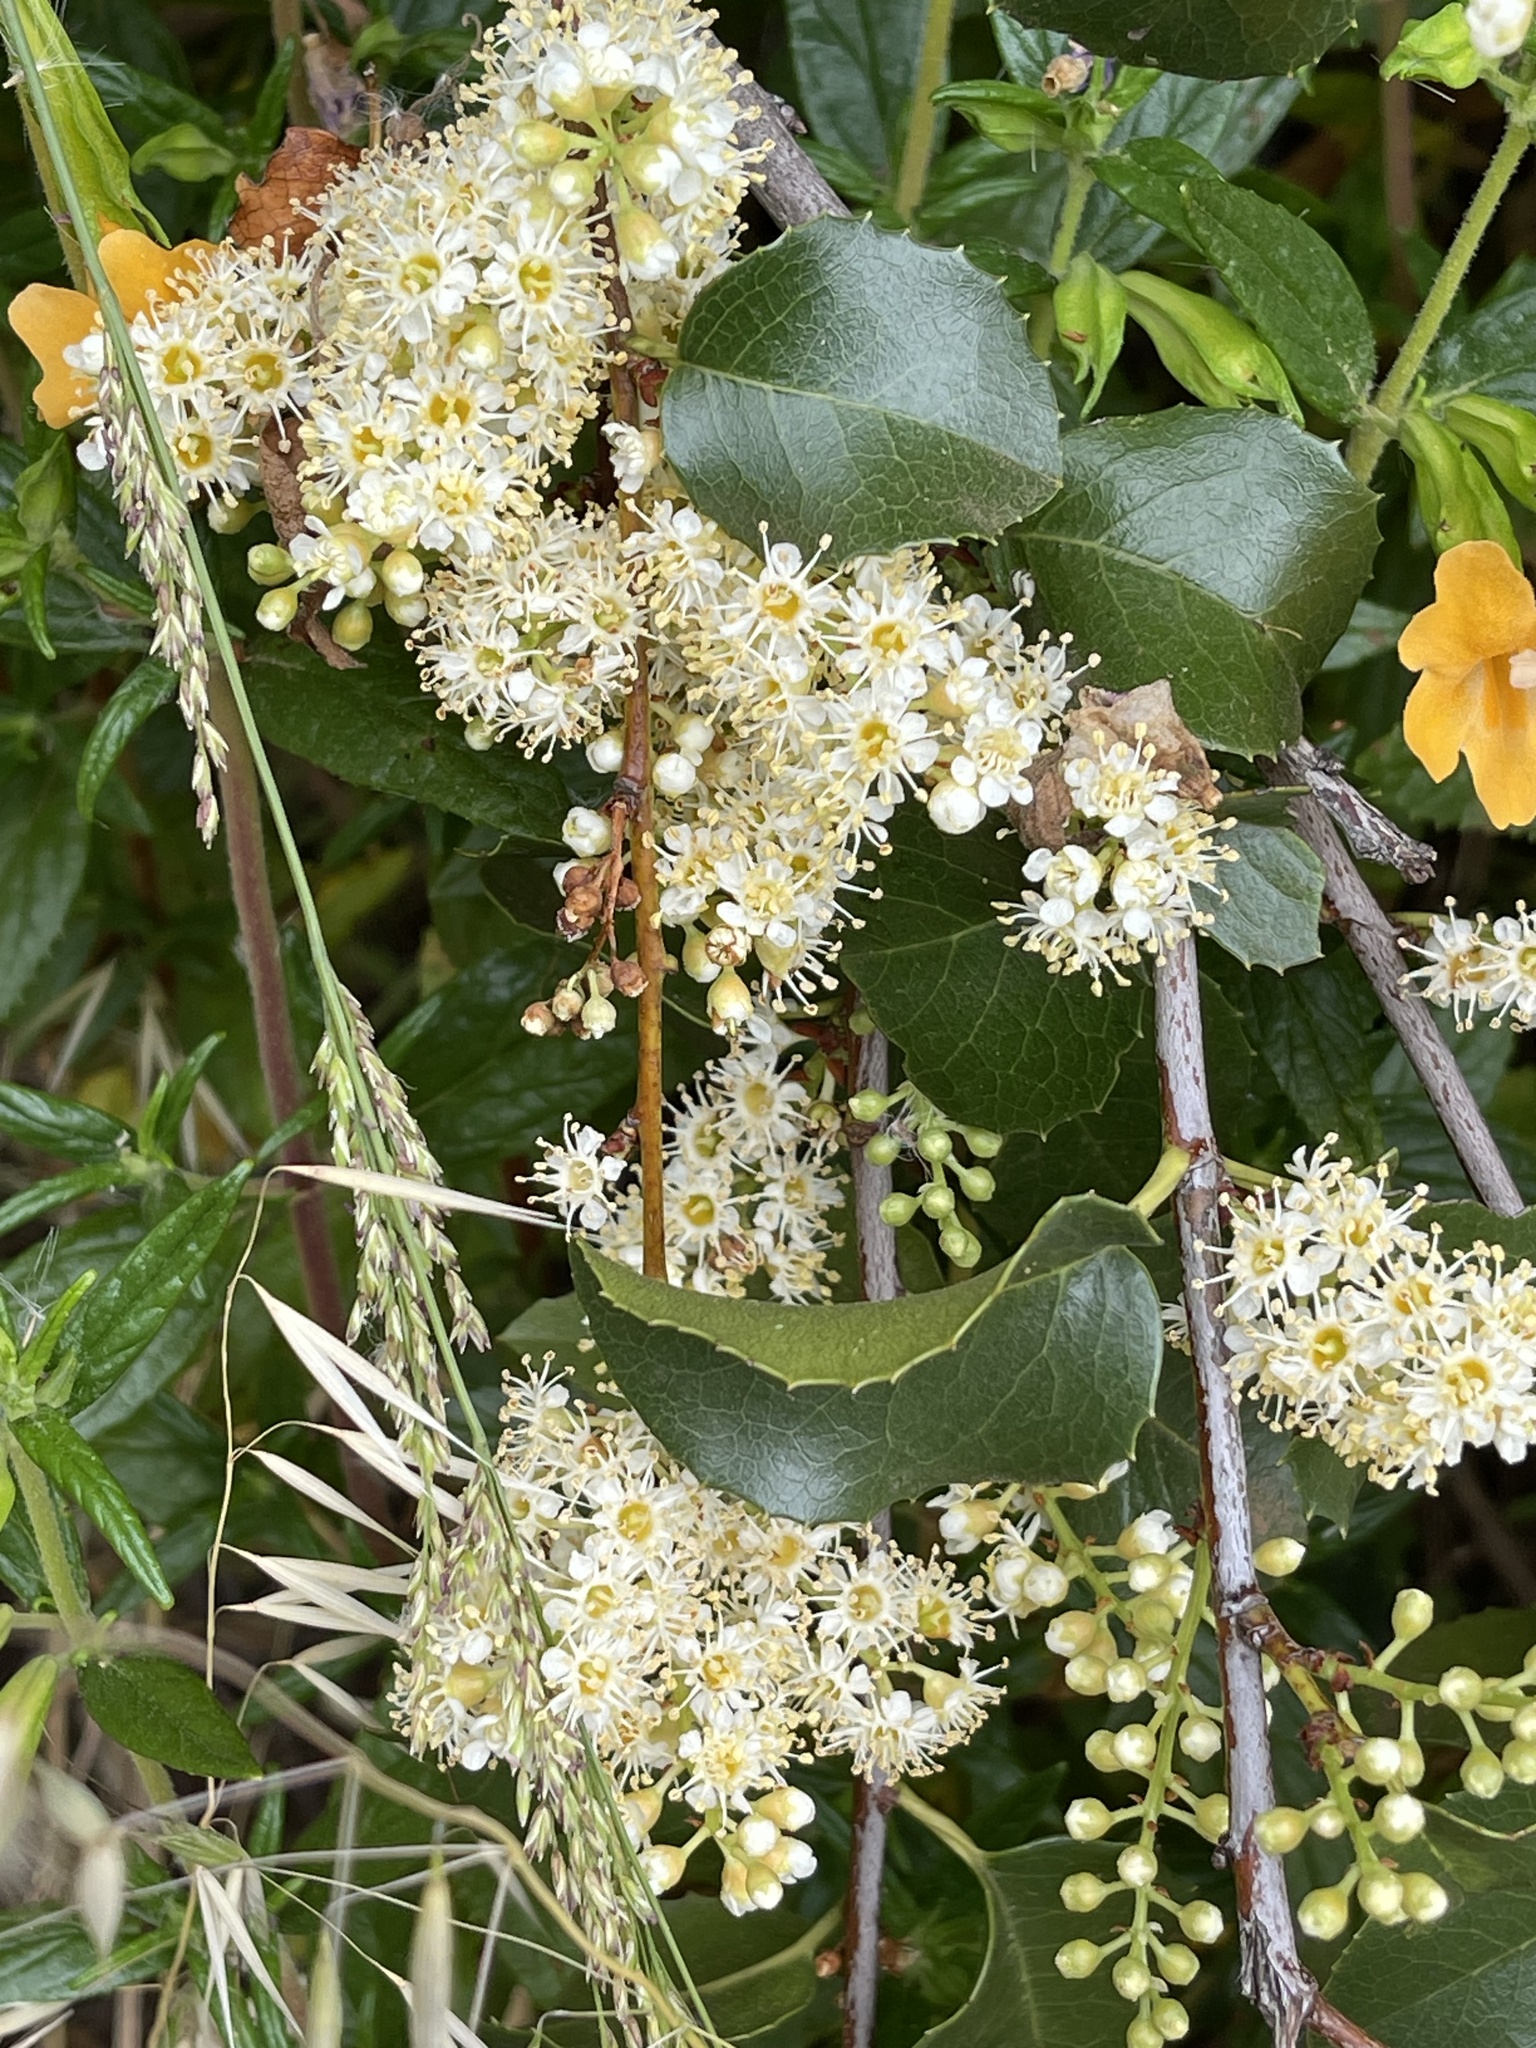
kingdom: Plantae
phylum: Tracheophyta
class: Magnoliopsida
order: Rosales
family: Rosaceae
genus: Prunus
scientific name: Prunus ilicifolia
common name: Hollyleaf cherry
